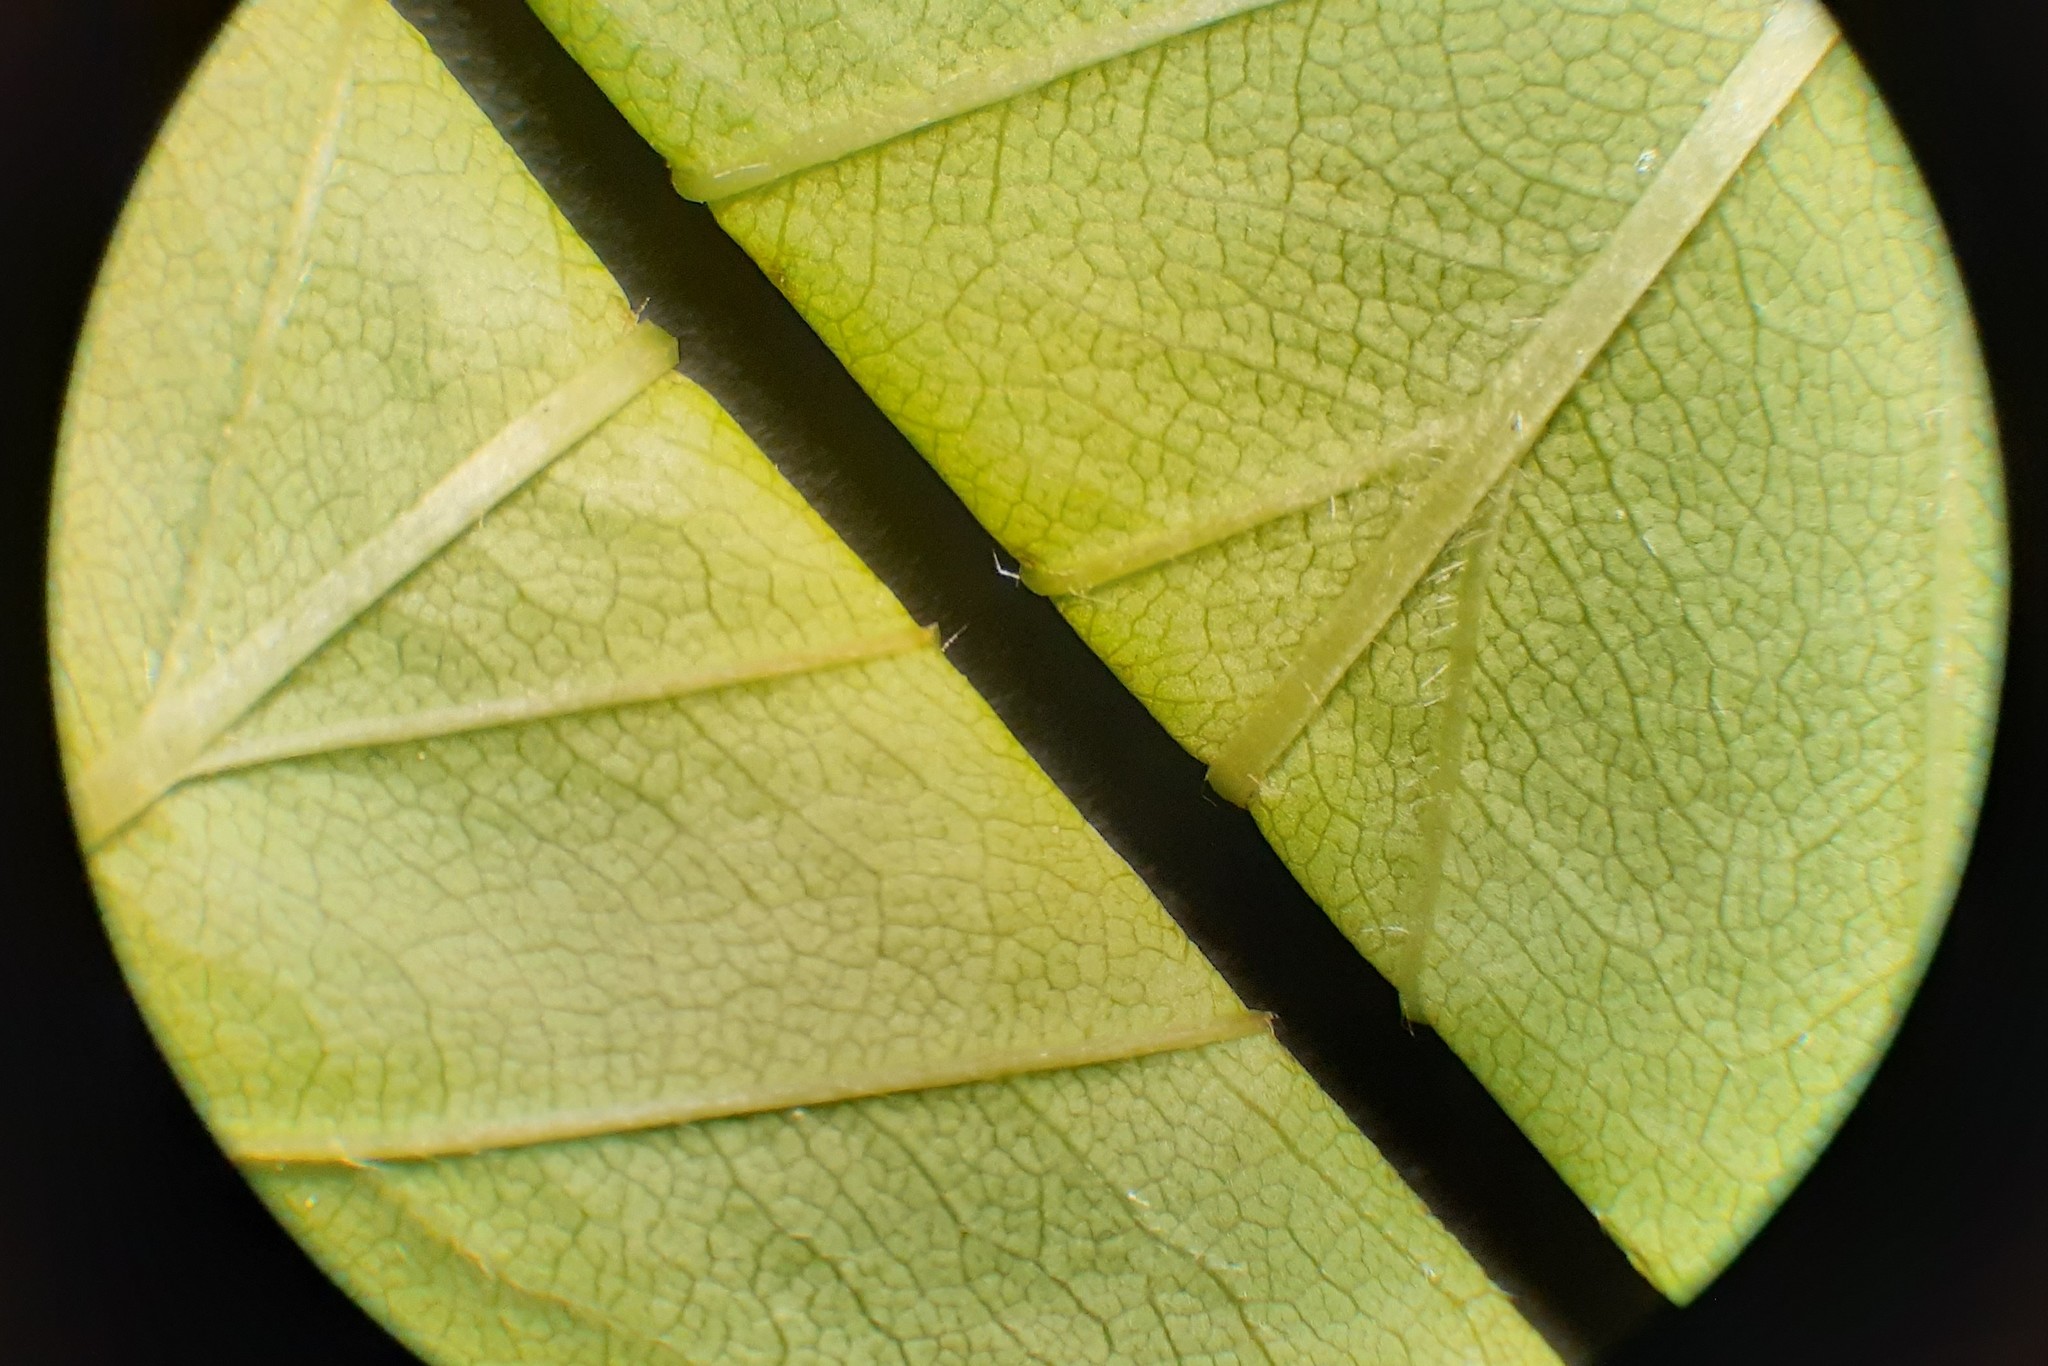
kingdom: Plantae
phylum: Tracheophyta
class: Magnoliopsida
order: Rosales
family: Rosaceae
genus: Crataegus
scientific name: Crataegus coccinea
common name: Scarlet hawthorn
